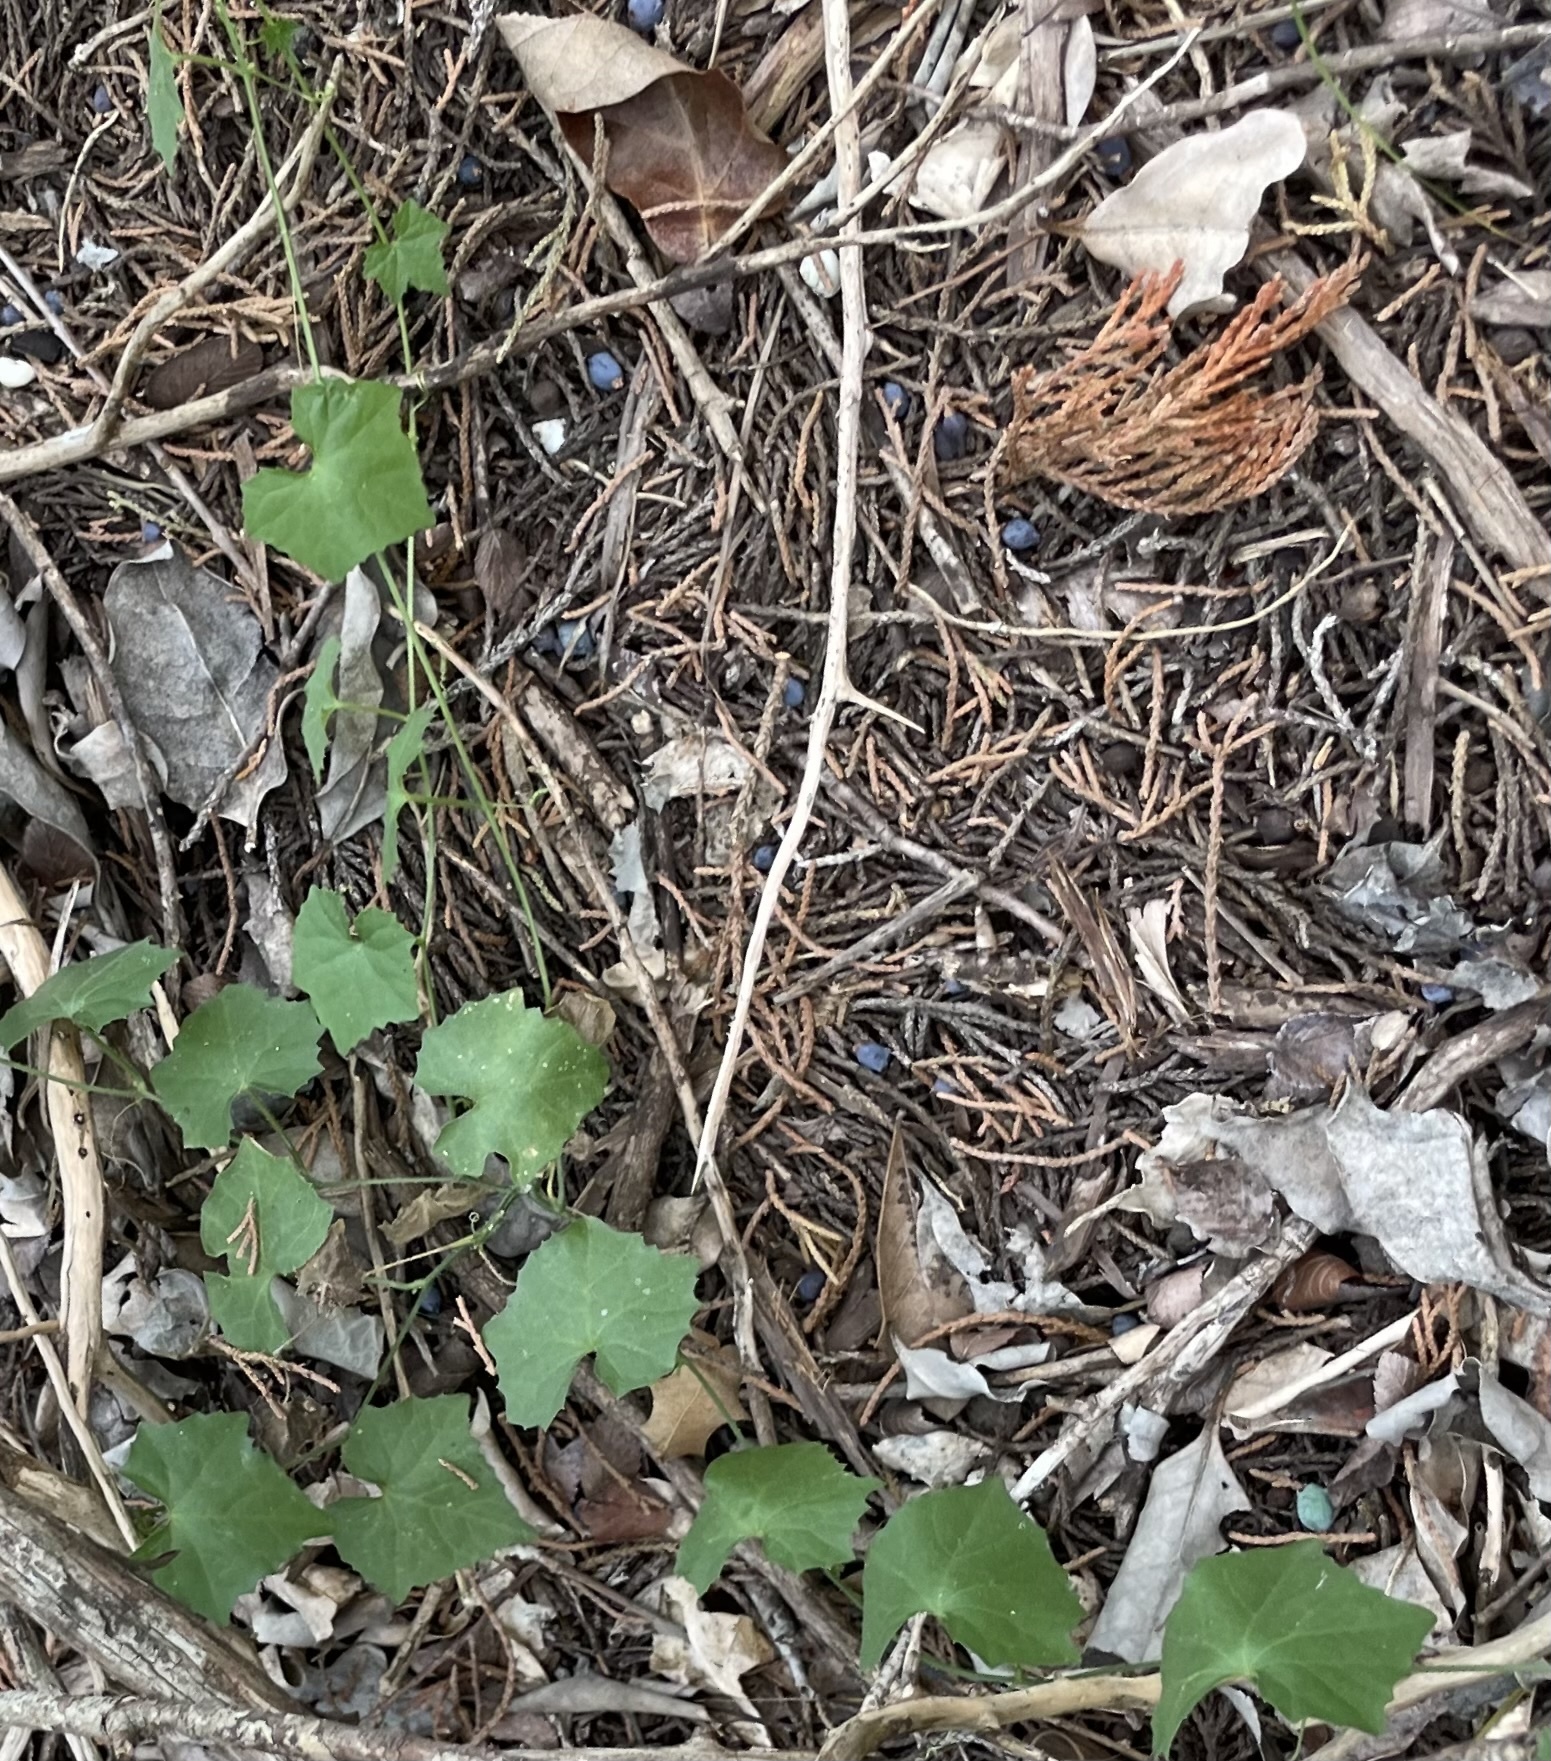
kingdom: Plantae
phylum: Tracheophyta
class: Magnoliopsida
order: Cucurbitales
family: Cucurbitaceae
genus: Melothria
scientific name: Melothria pendula
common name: Creeping-cucumber
